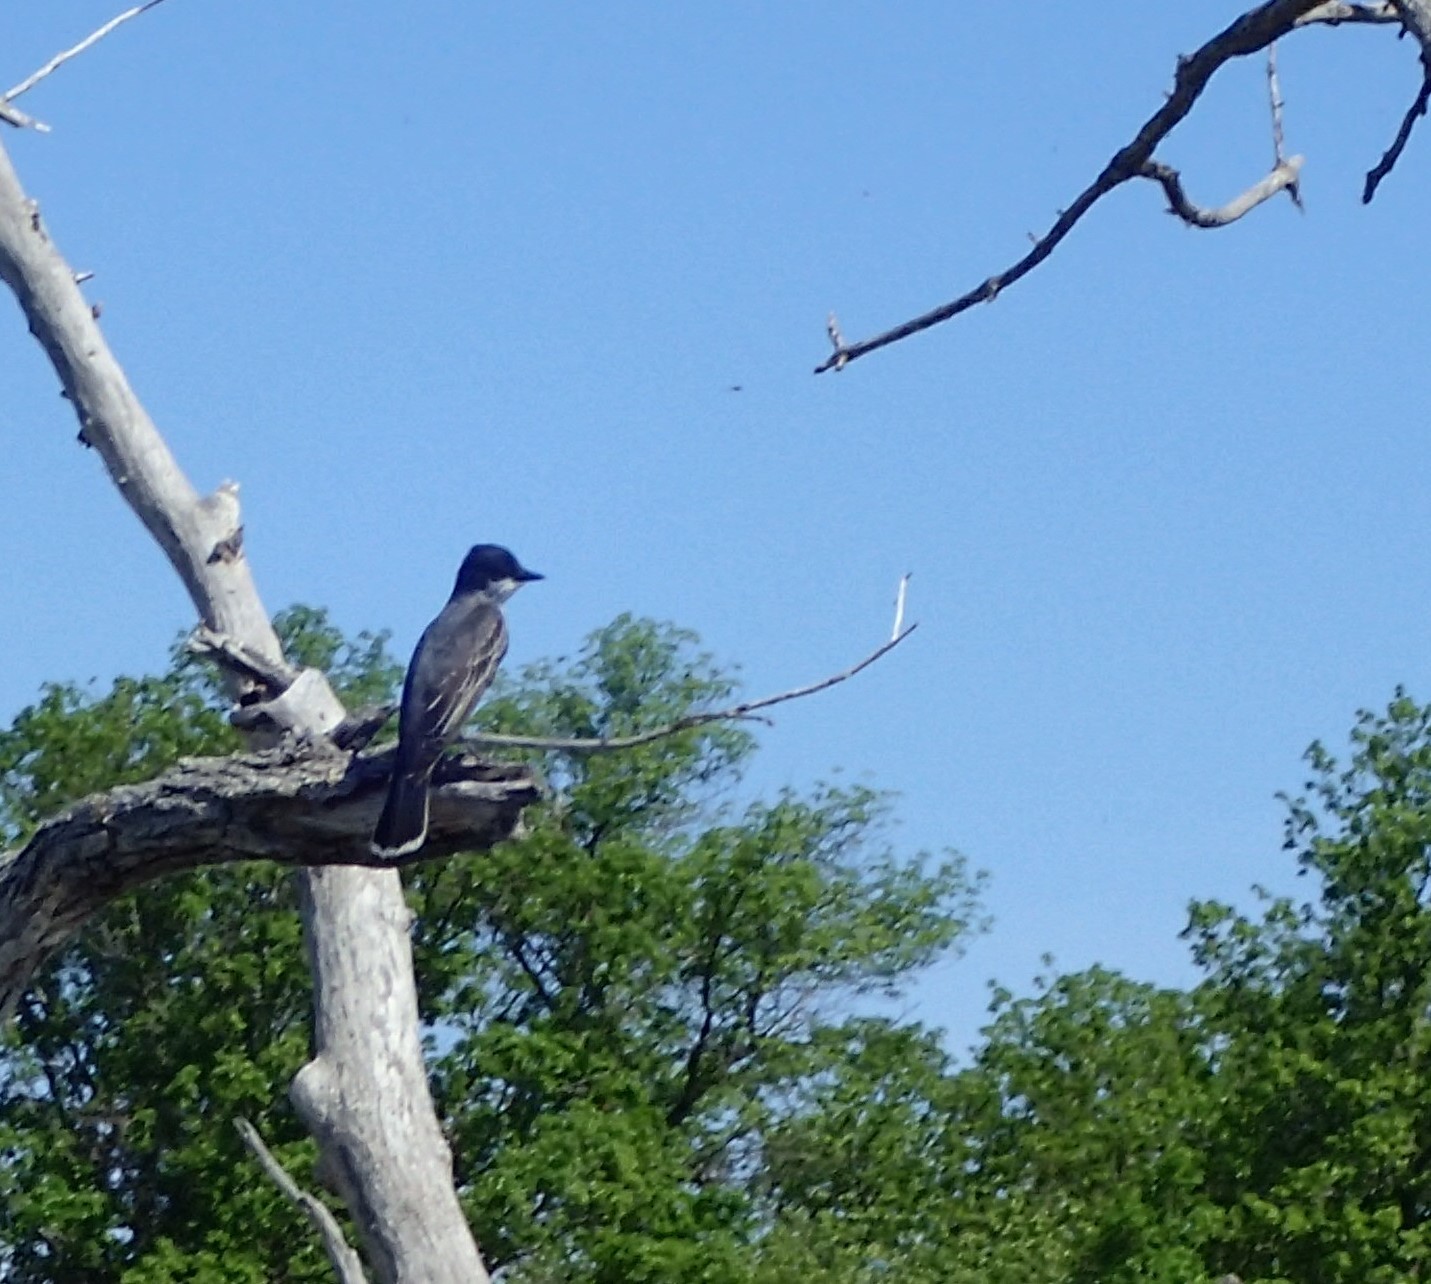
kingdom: Animalia
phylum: Chordata
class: Aves
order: Passeriformes
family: Tyrannidae
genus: Tyrannus
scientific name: Tyrannus tyrannus
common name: Eastern kingbird
